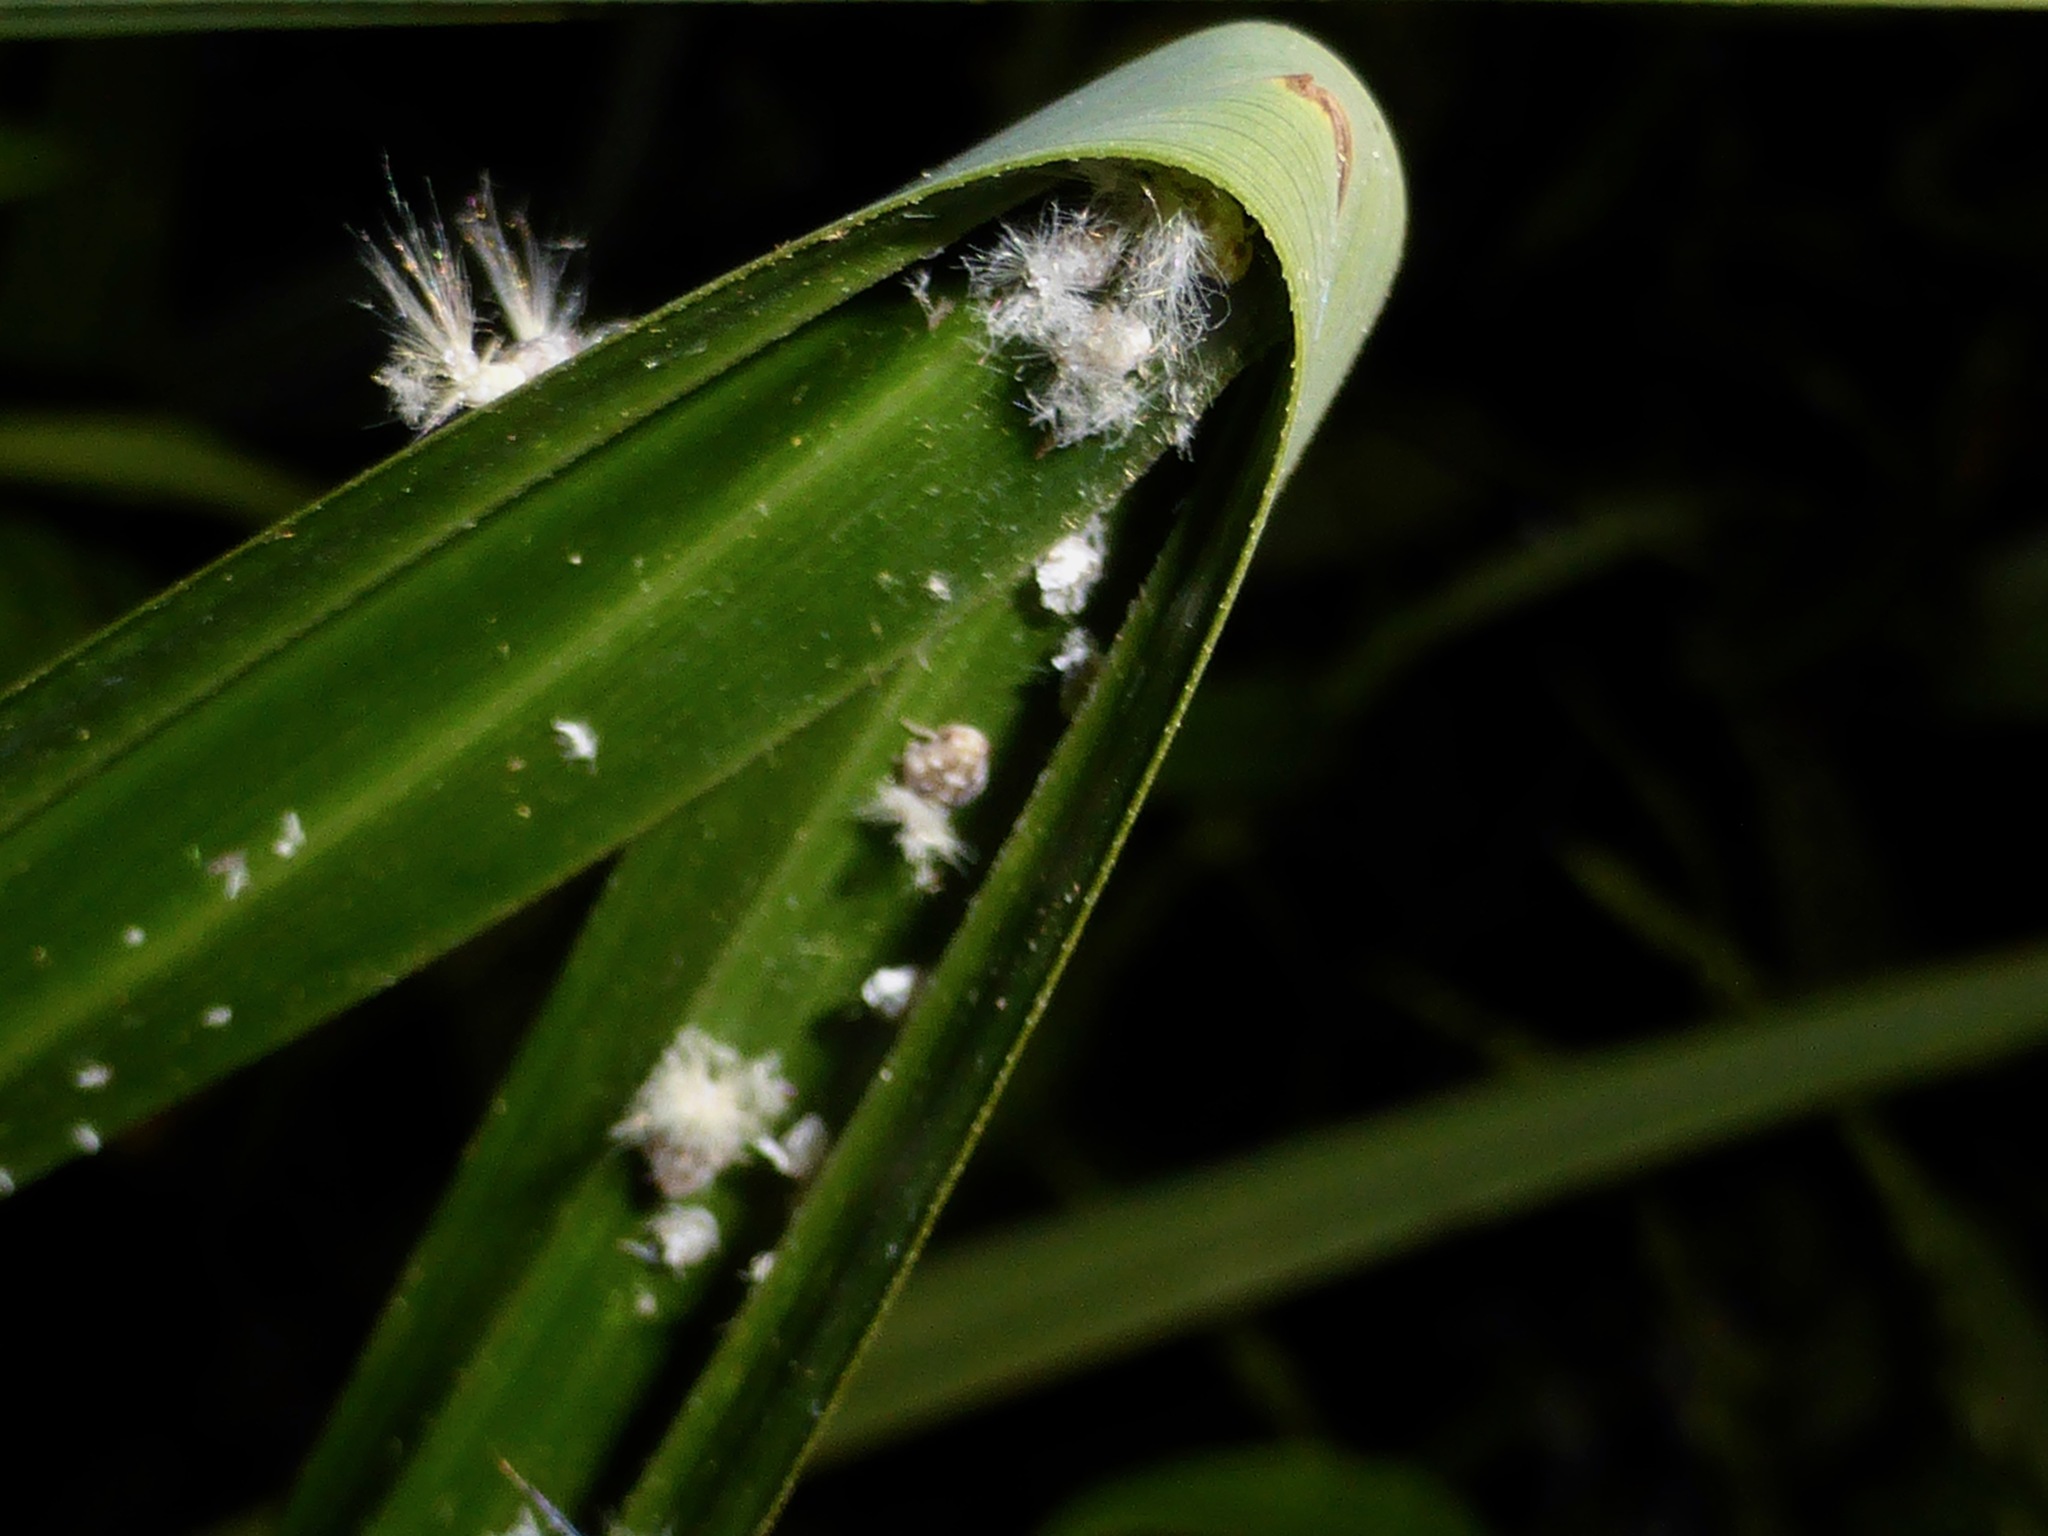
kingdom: Animalia
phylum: Arthropoda
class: Insecta
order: Hemiptera
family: Ricaniidae
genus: Scolypopa
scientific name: Scolypopa australis
